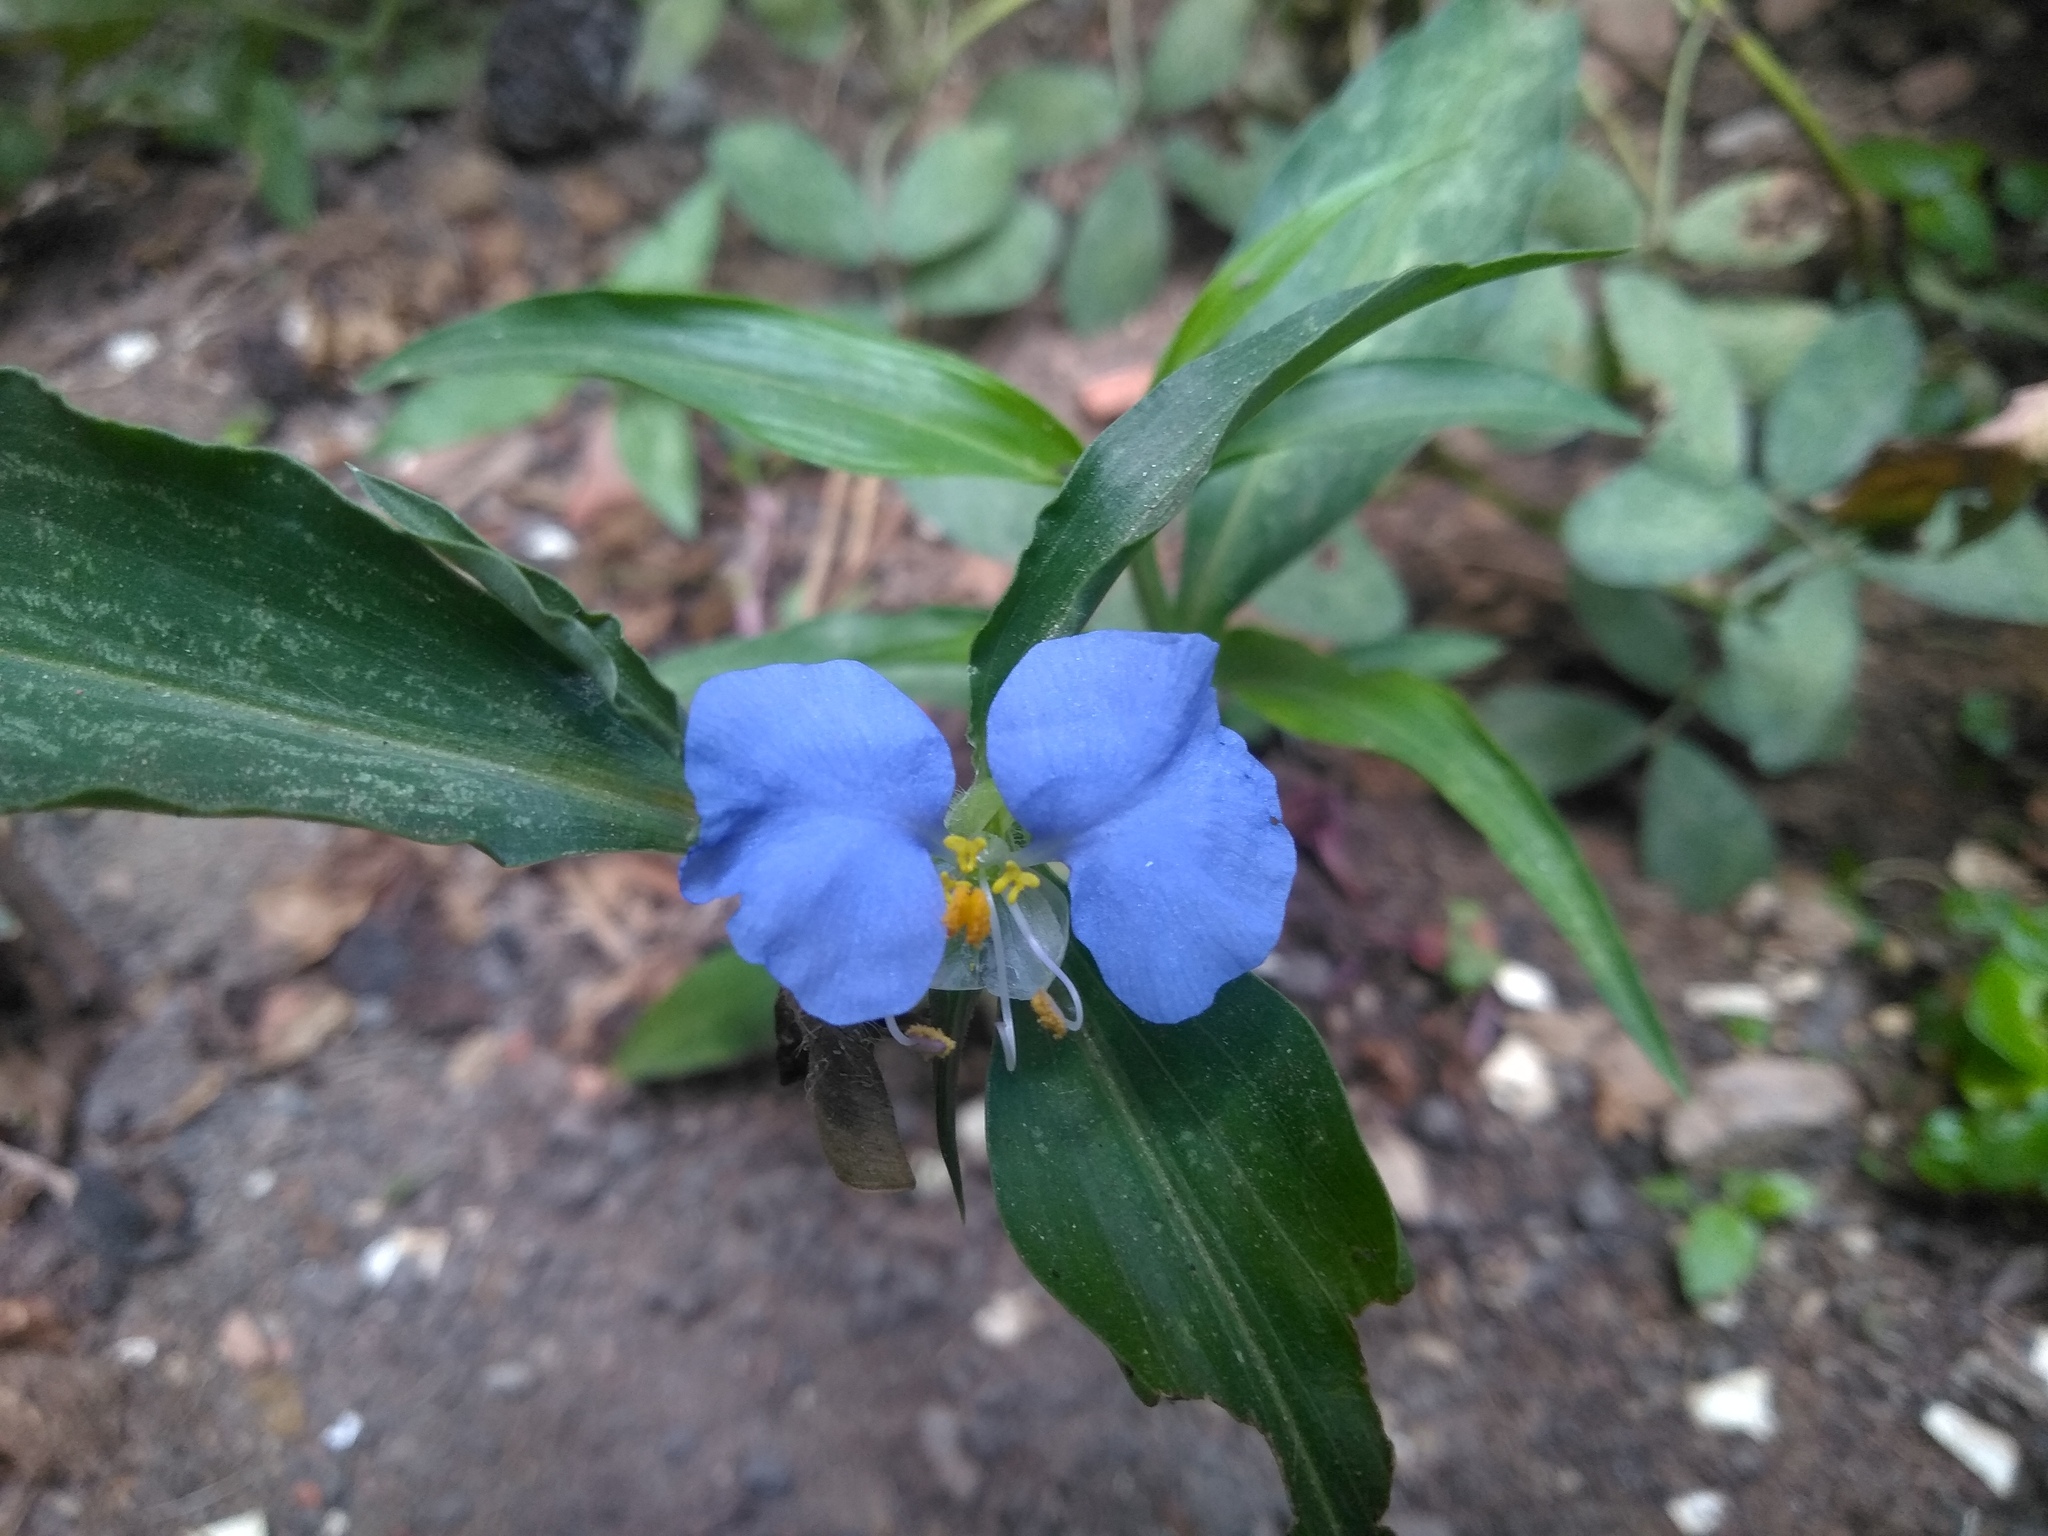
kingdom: Plantae
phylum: Tracheophyta
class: Liliopsida
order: Commelinales
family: Commelinaceae
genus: Commelina
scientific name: Commelina erecta
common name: Blousel blommetjie
